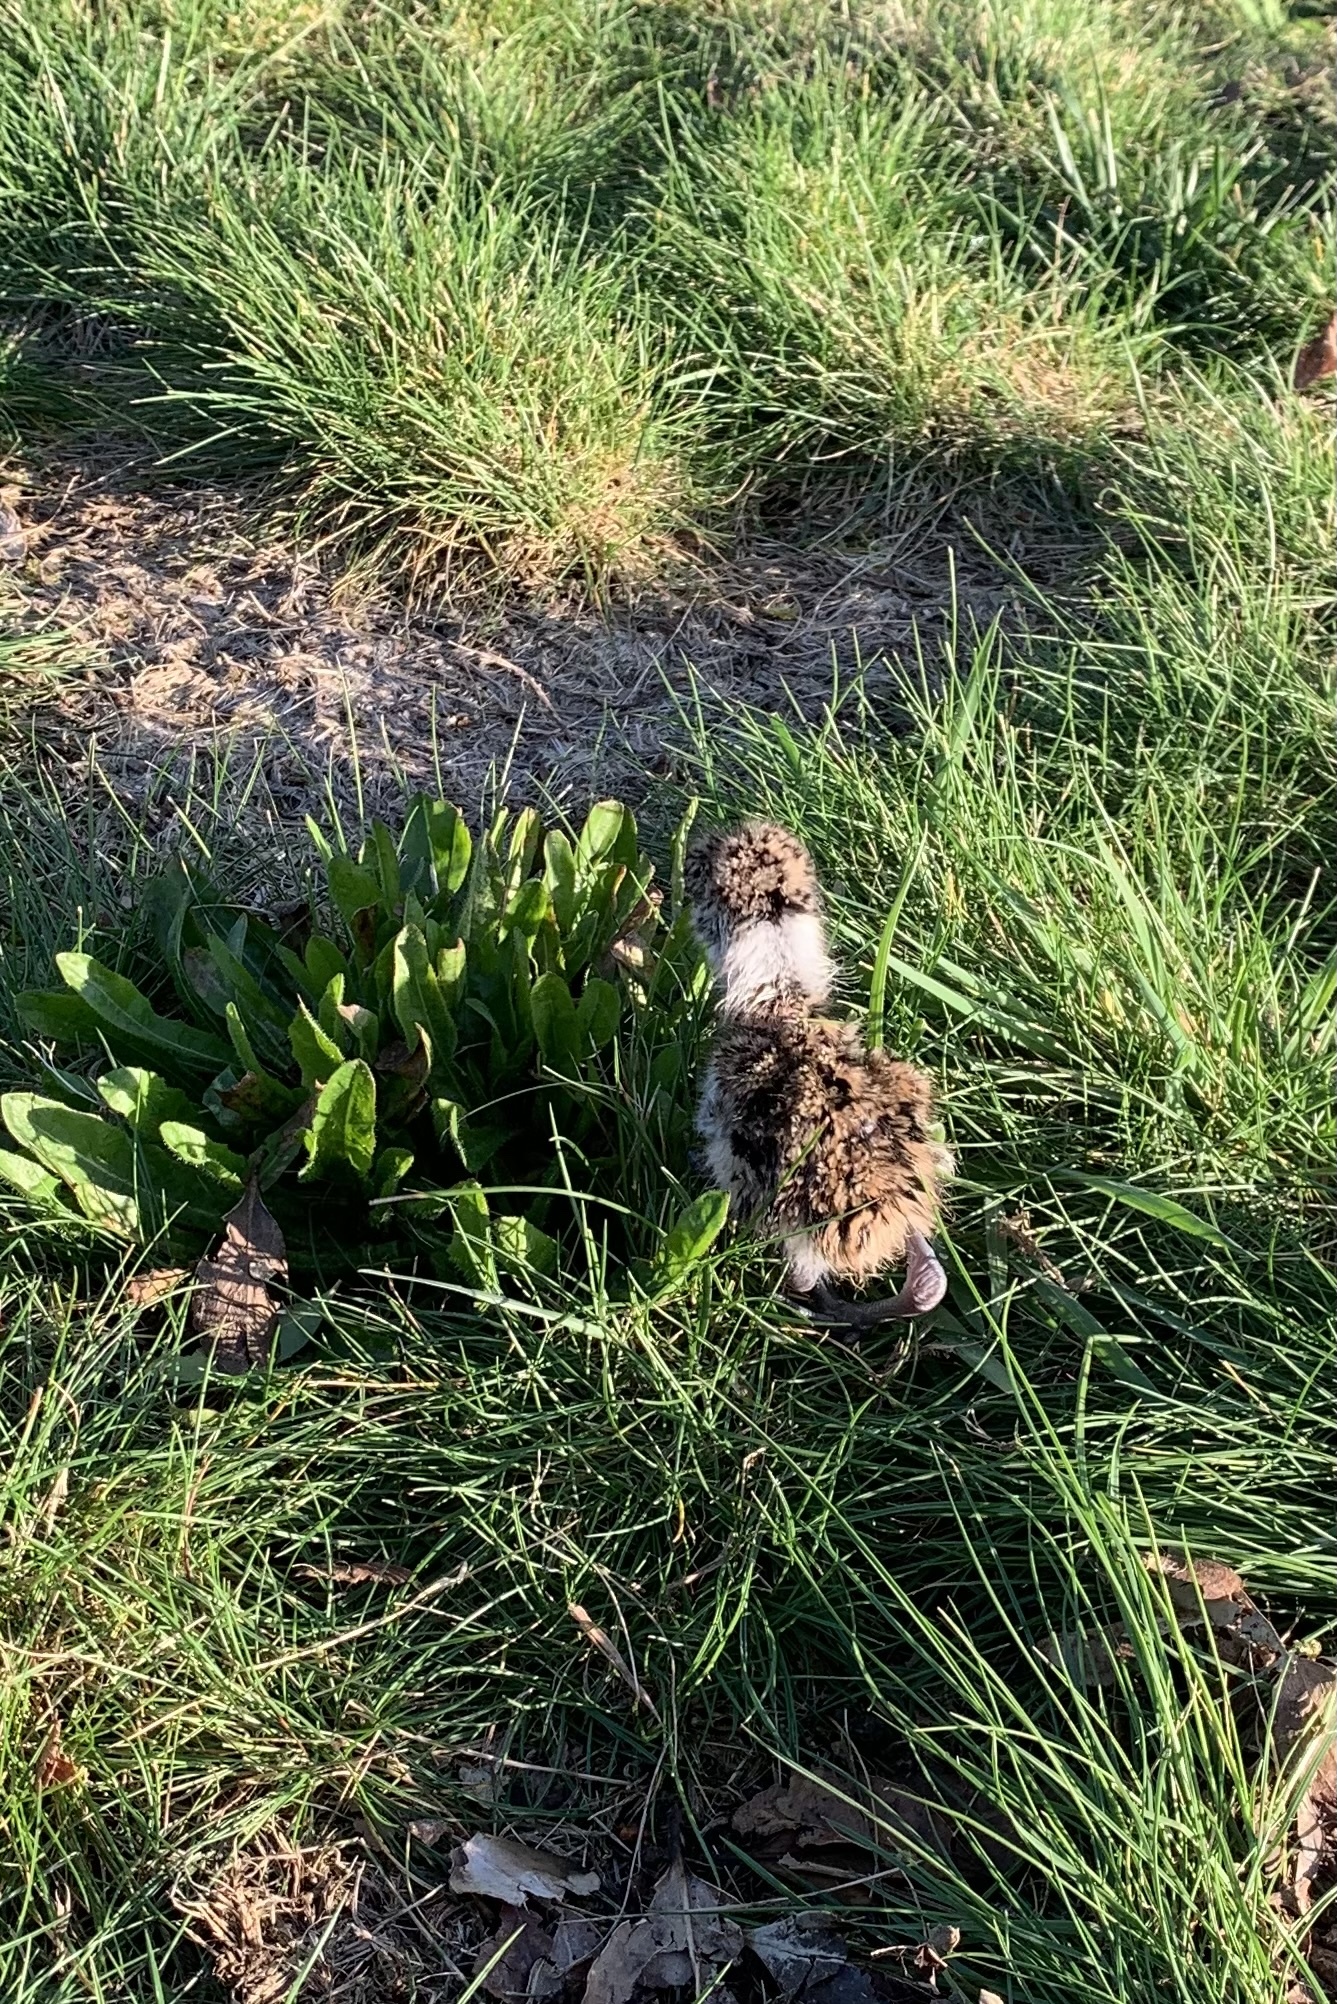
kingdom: Animalia
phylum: Chordata
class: Aves
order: Charadriiformes
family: Charadriidae
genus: Vanellus
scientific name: Vanellus chilensis
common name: Southern lapwing
